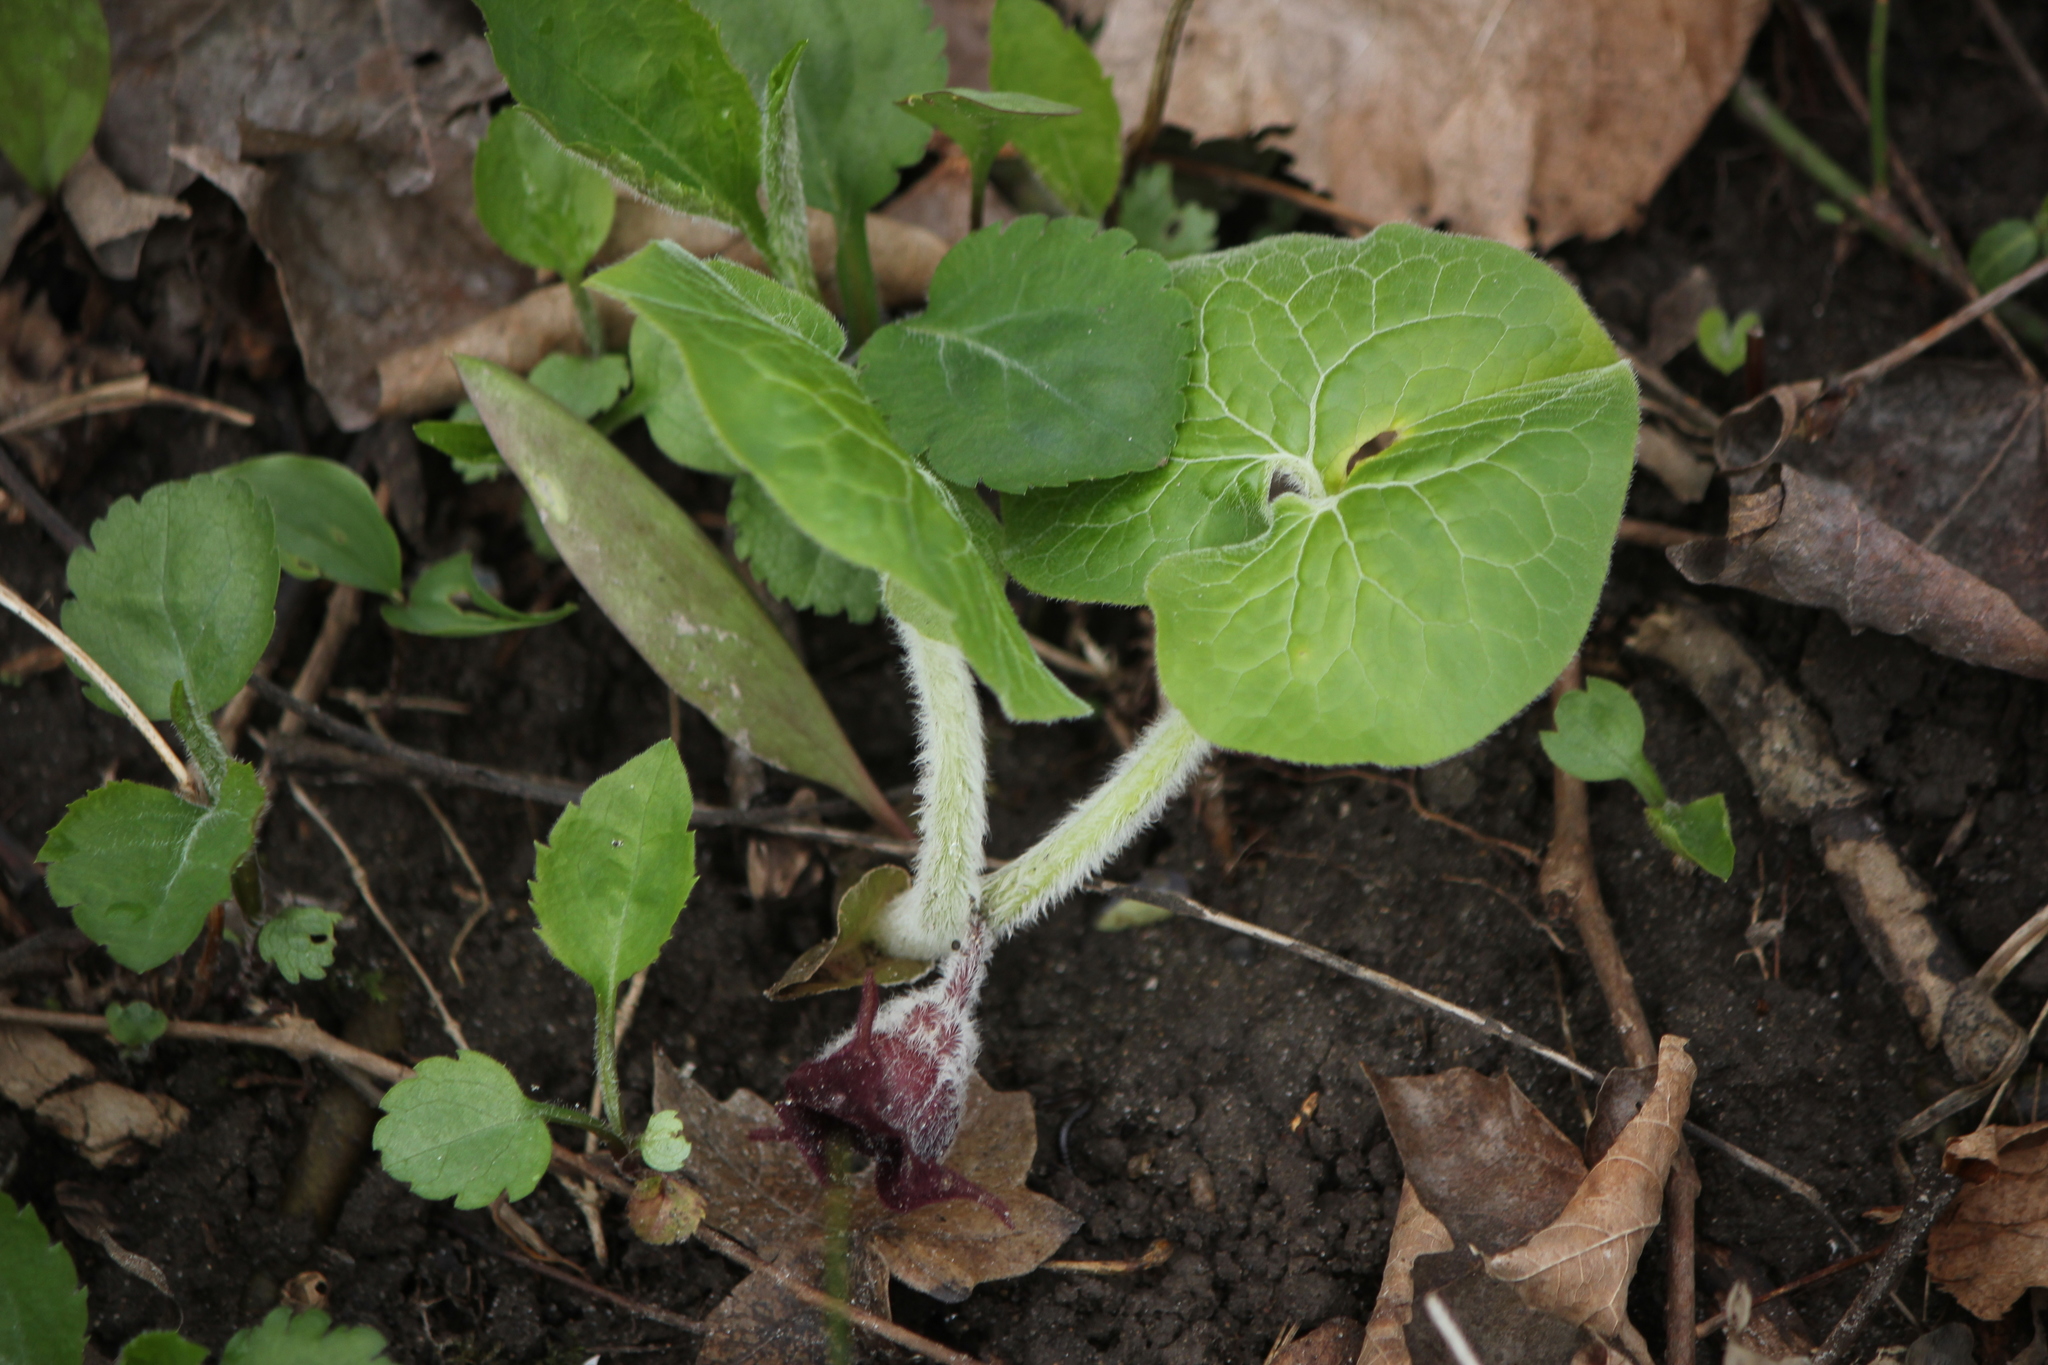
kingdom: Plantae
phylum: Tracheophyta
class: Magnoliopsida
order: Piperales
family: Aristolochiaceae
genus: Asarum
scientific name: Asarum canadense
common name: Wild ginger
